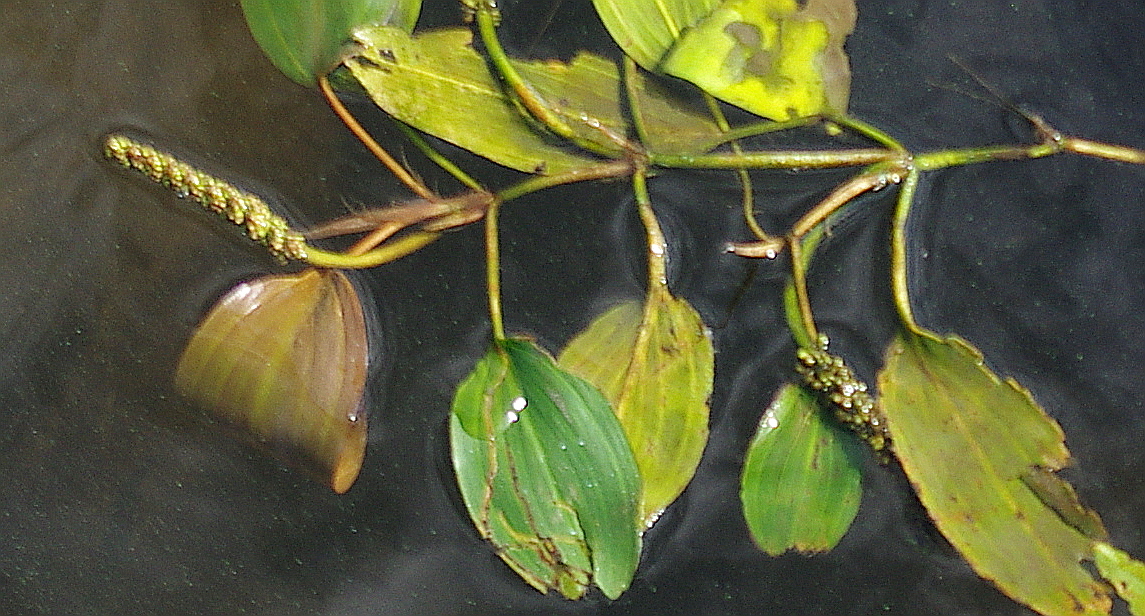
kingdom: Plantae
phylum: Tracheophyta
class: Liliopsida
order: Alismatales
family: Potamogetonaceae
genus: Potamogeton
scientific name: Potamogeton natans
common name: Broad-leaved pondweed
